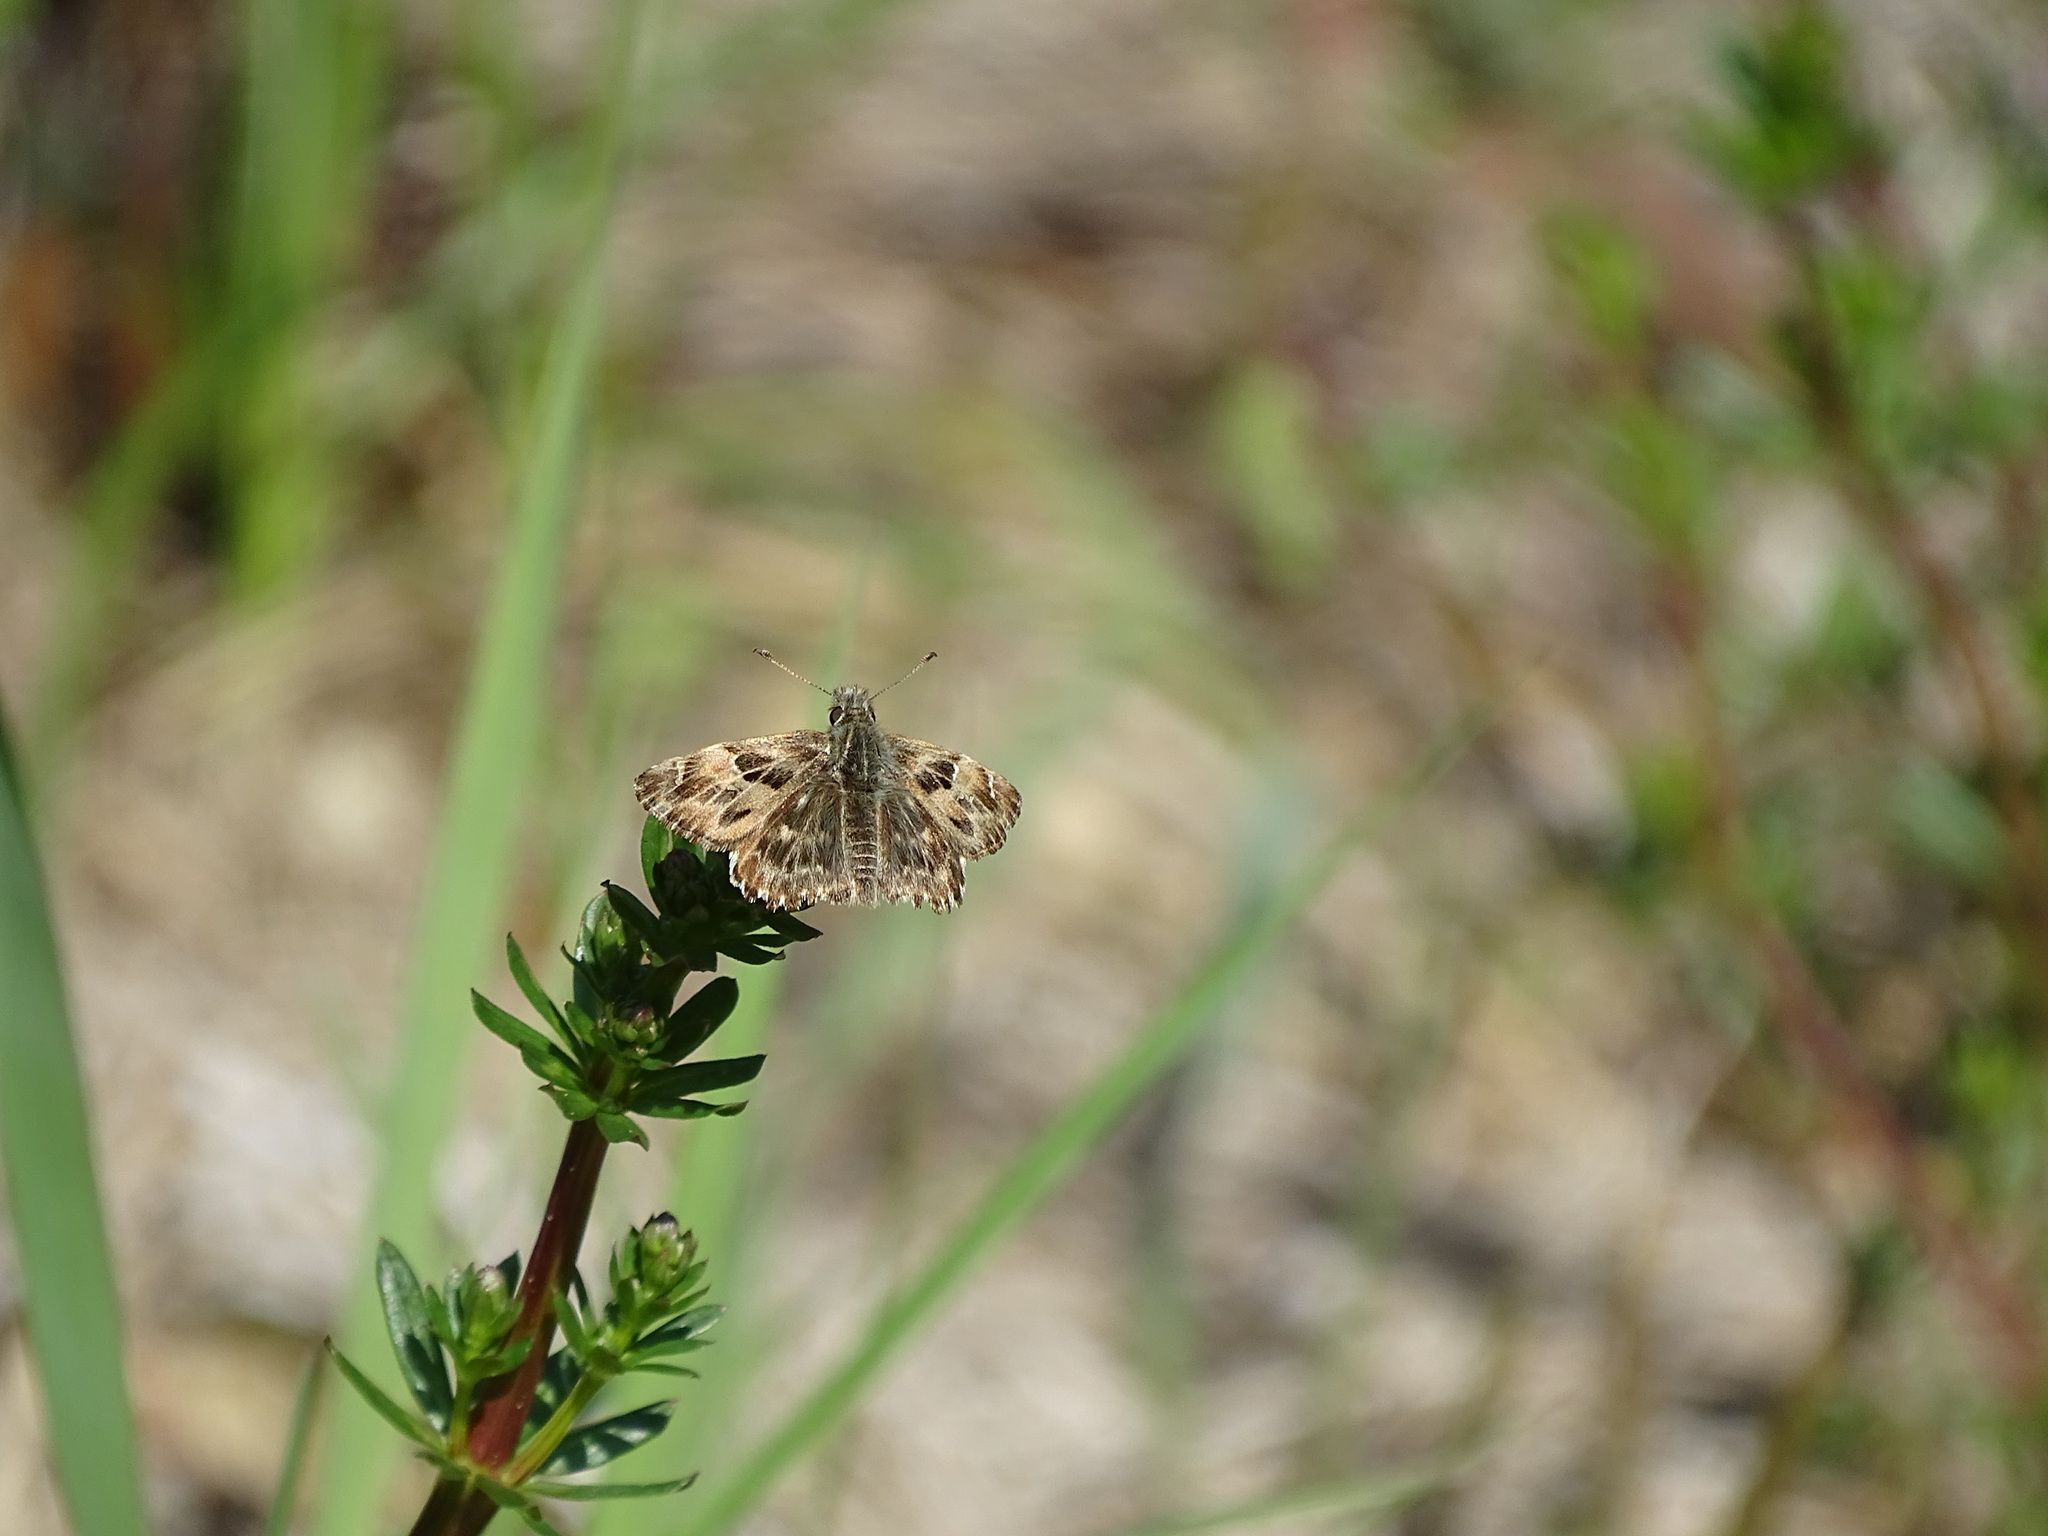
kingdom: Animalia
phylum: Arthropoda
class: Insecta
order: Lepidoptera
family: Hesperiidae
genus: Carcharodus
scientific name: Carcharodus alceae
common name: Mallow skipper
